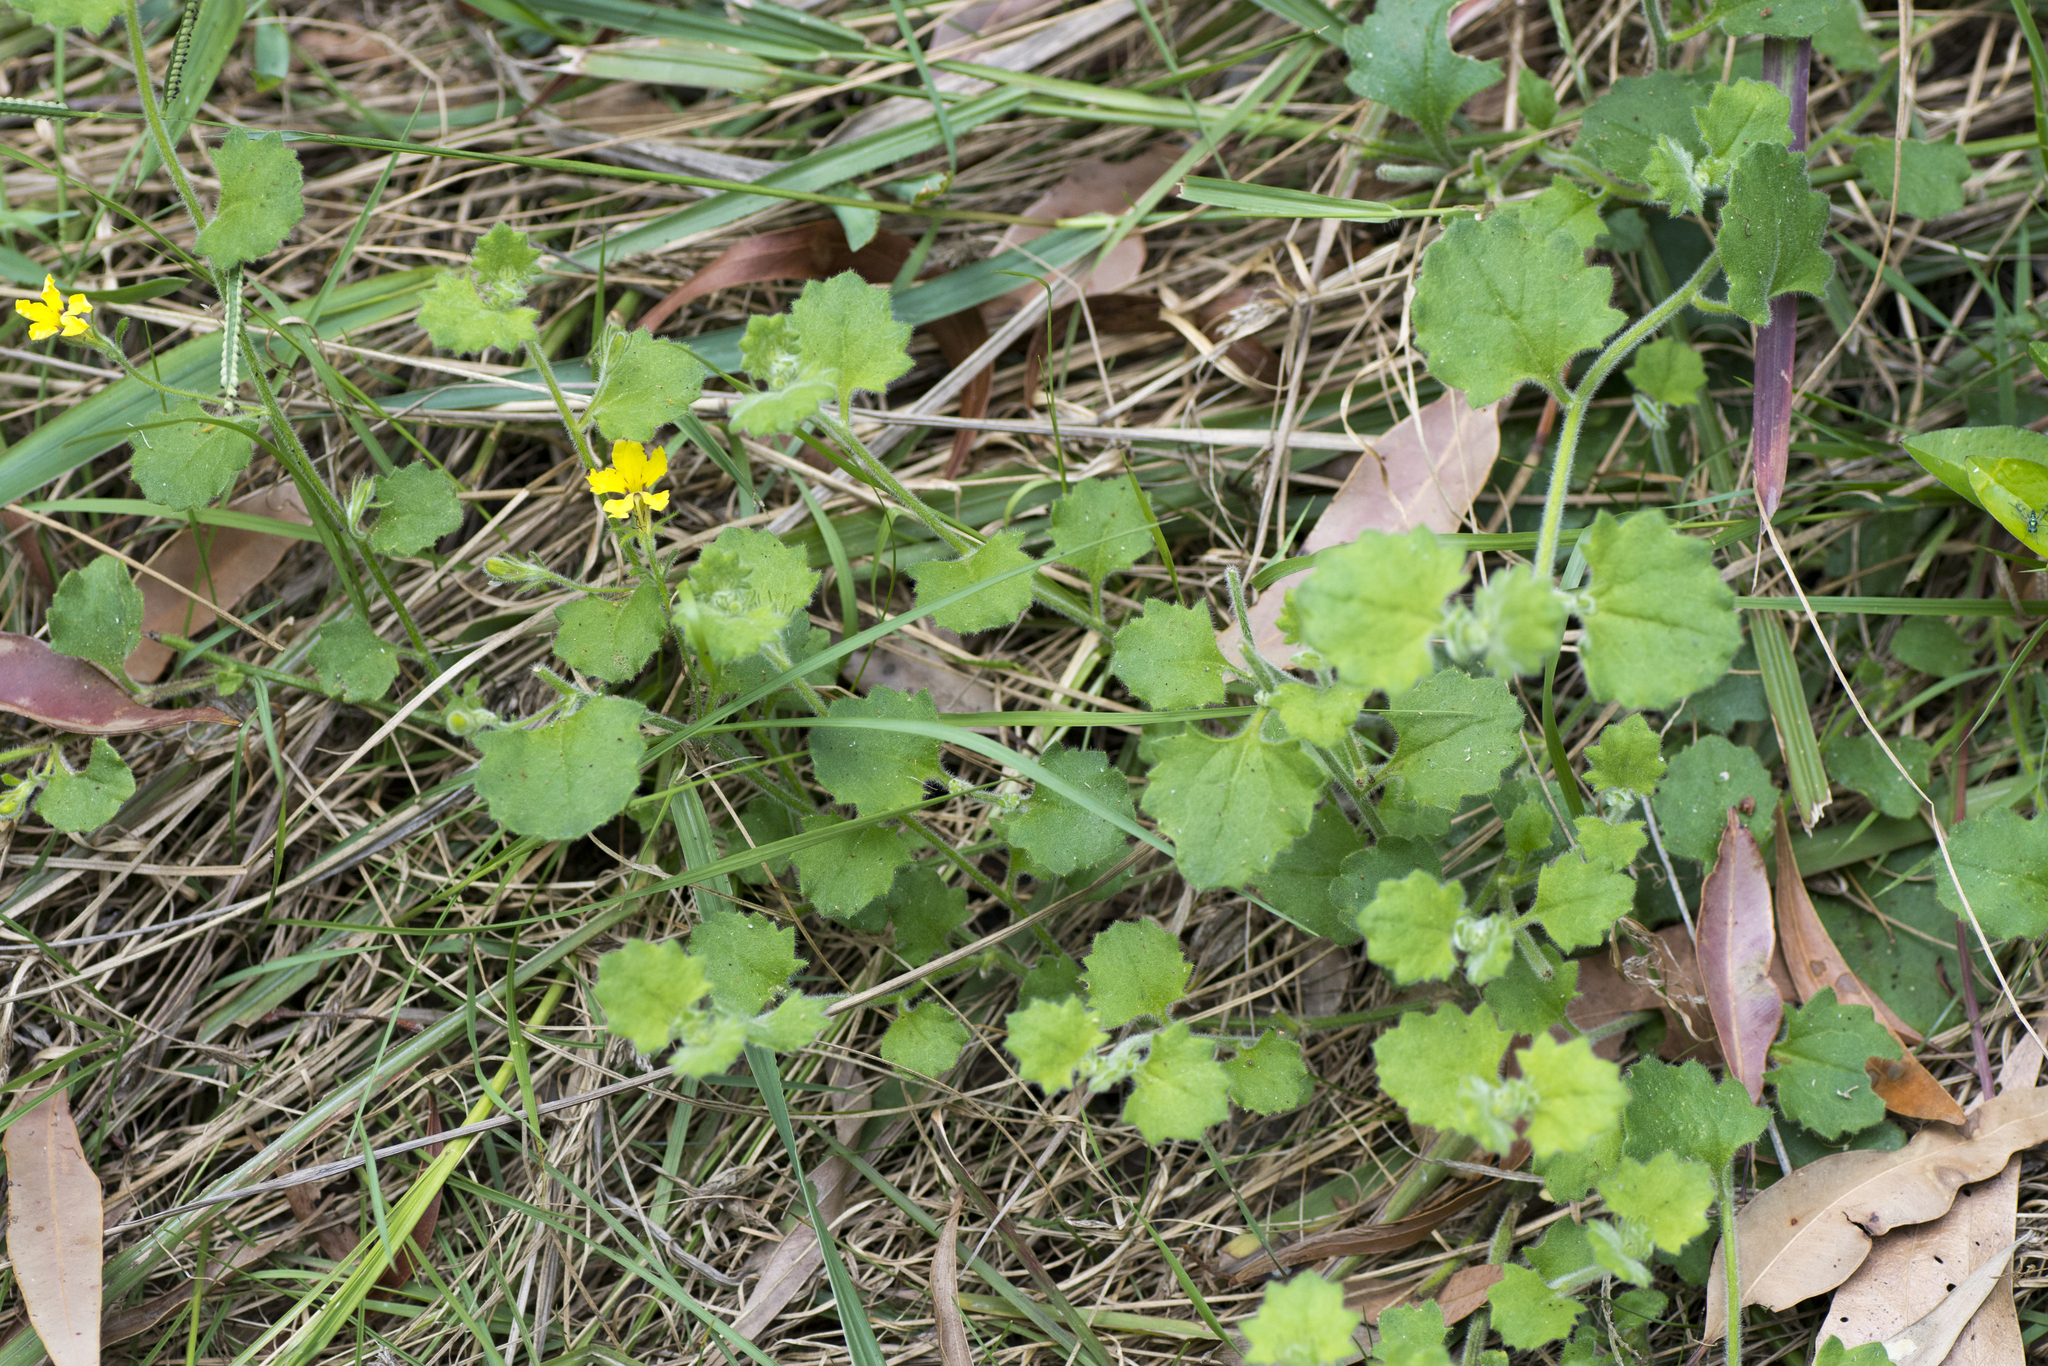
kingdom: Plantae
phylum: Tracheophyta
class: Magnoliopsida
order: Asterales
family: Goodeniaceae
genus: Goodenia
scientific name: Goodenia rotundifolia
